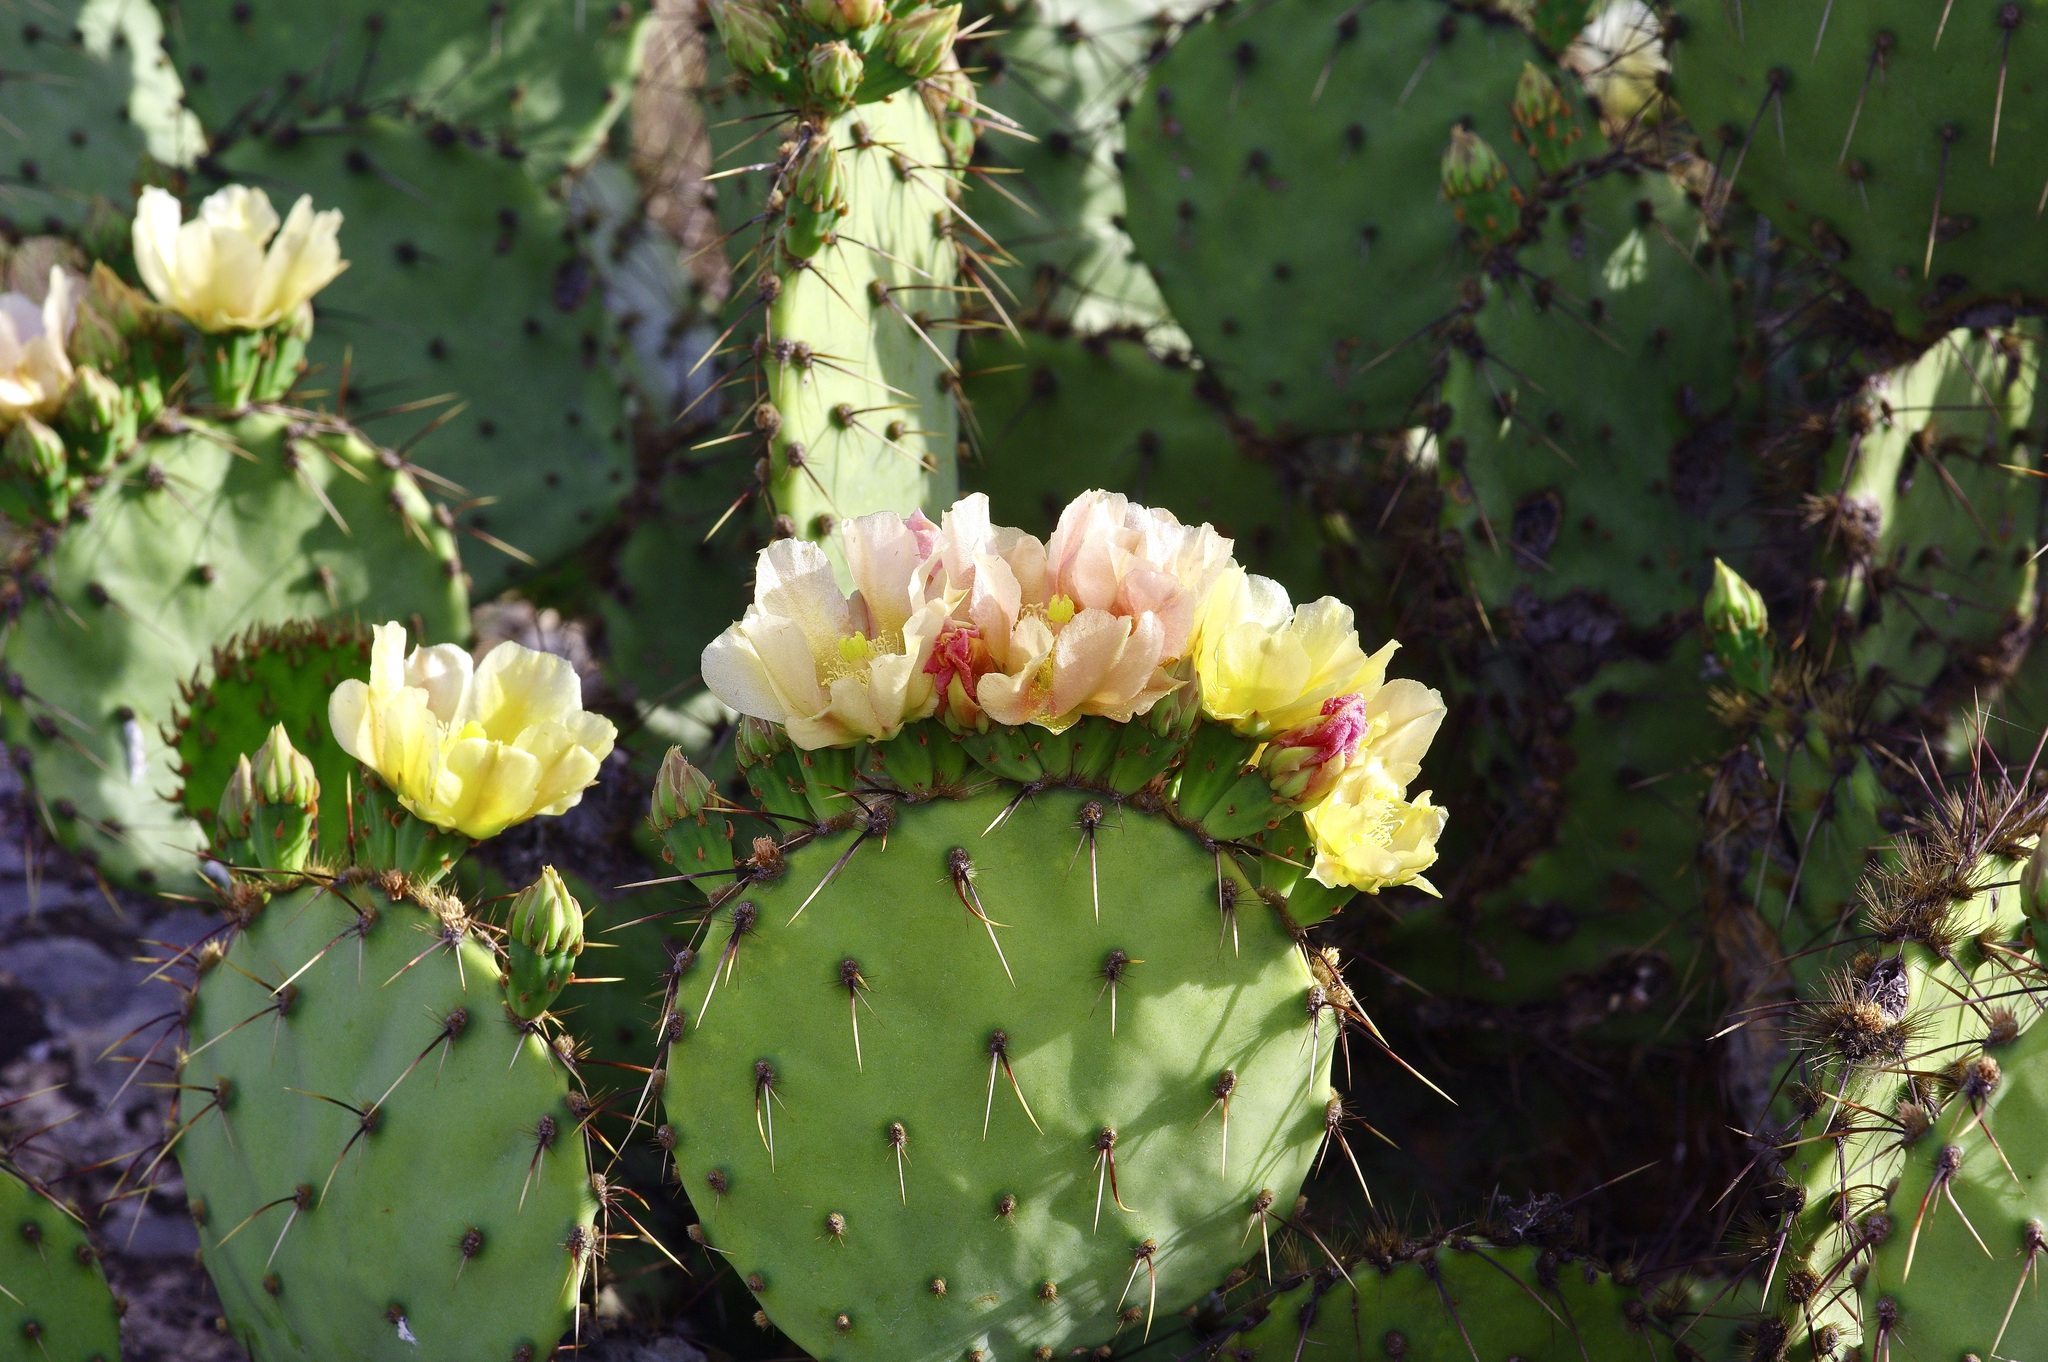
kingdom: Plantae
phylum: Tracheophyta
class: Magnoliopsida
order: Caryophyllales
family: Cactaceae
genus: Opuntia
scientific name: Opuntia atrispina
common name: Border prickly-pear
